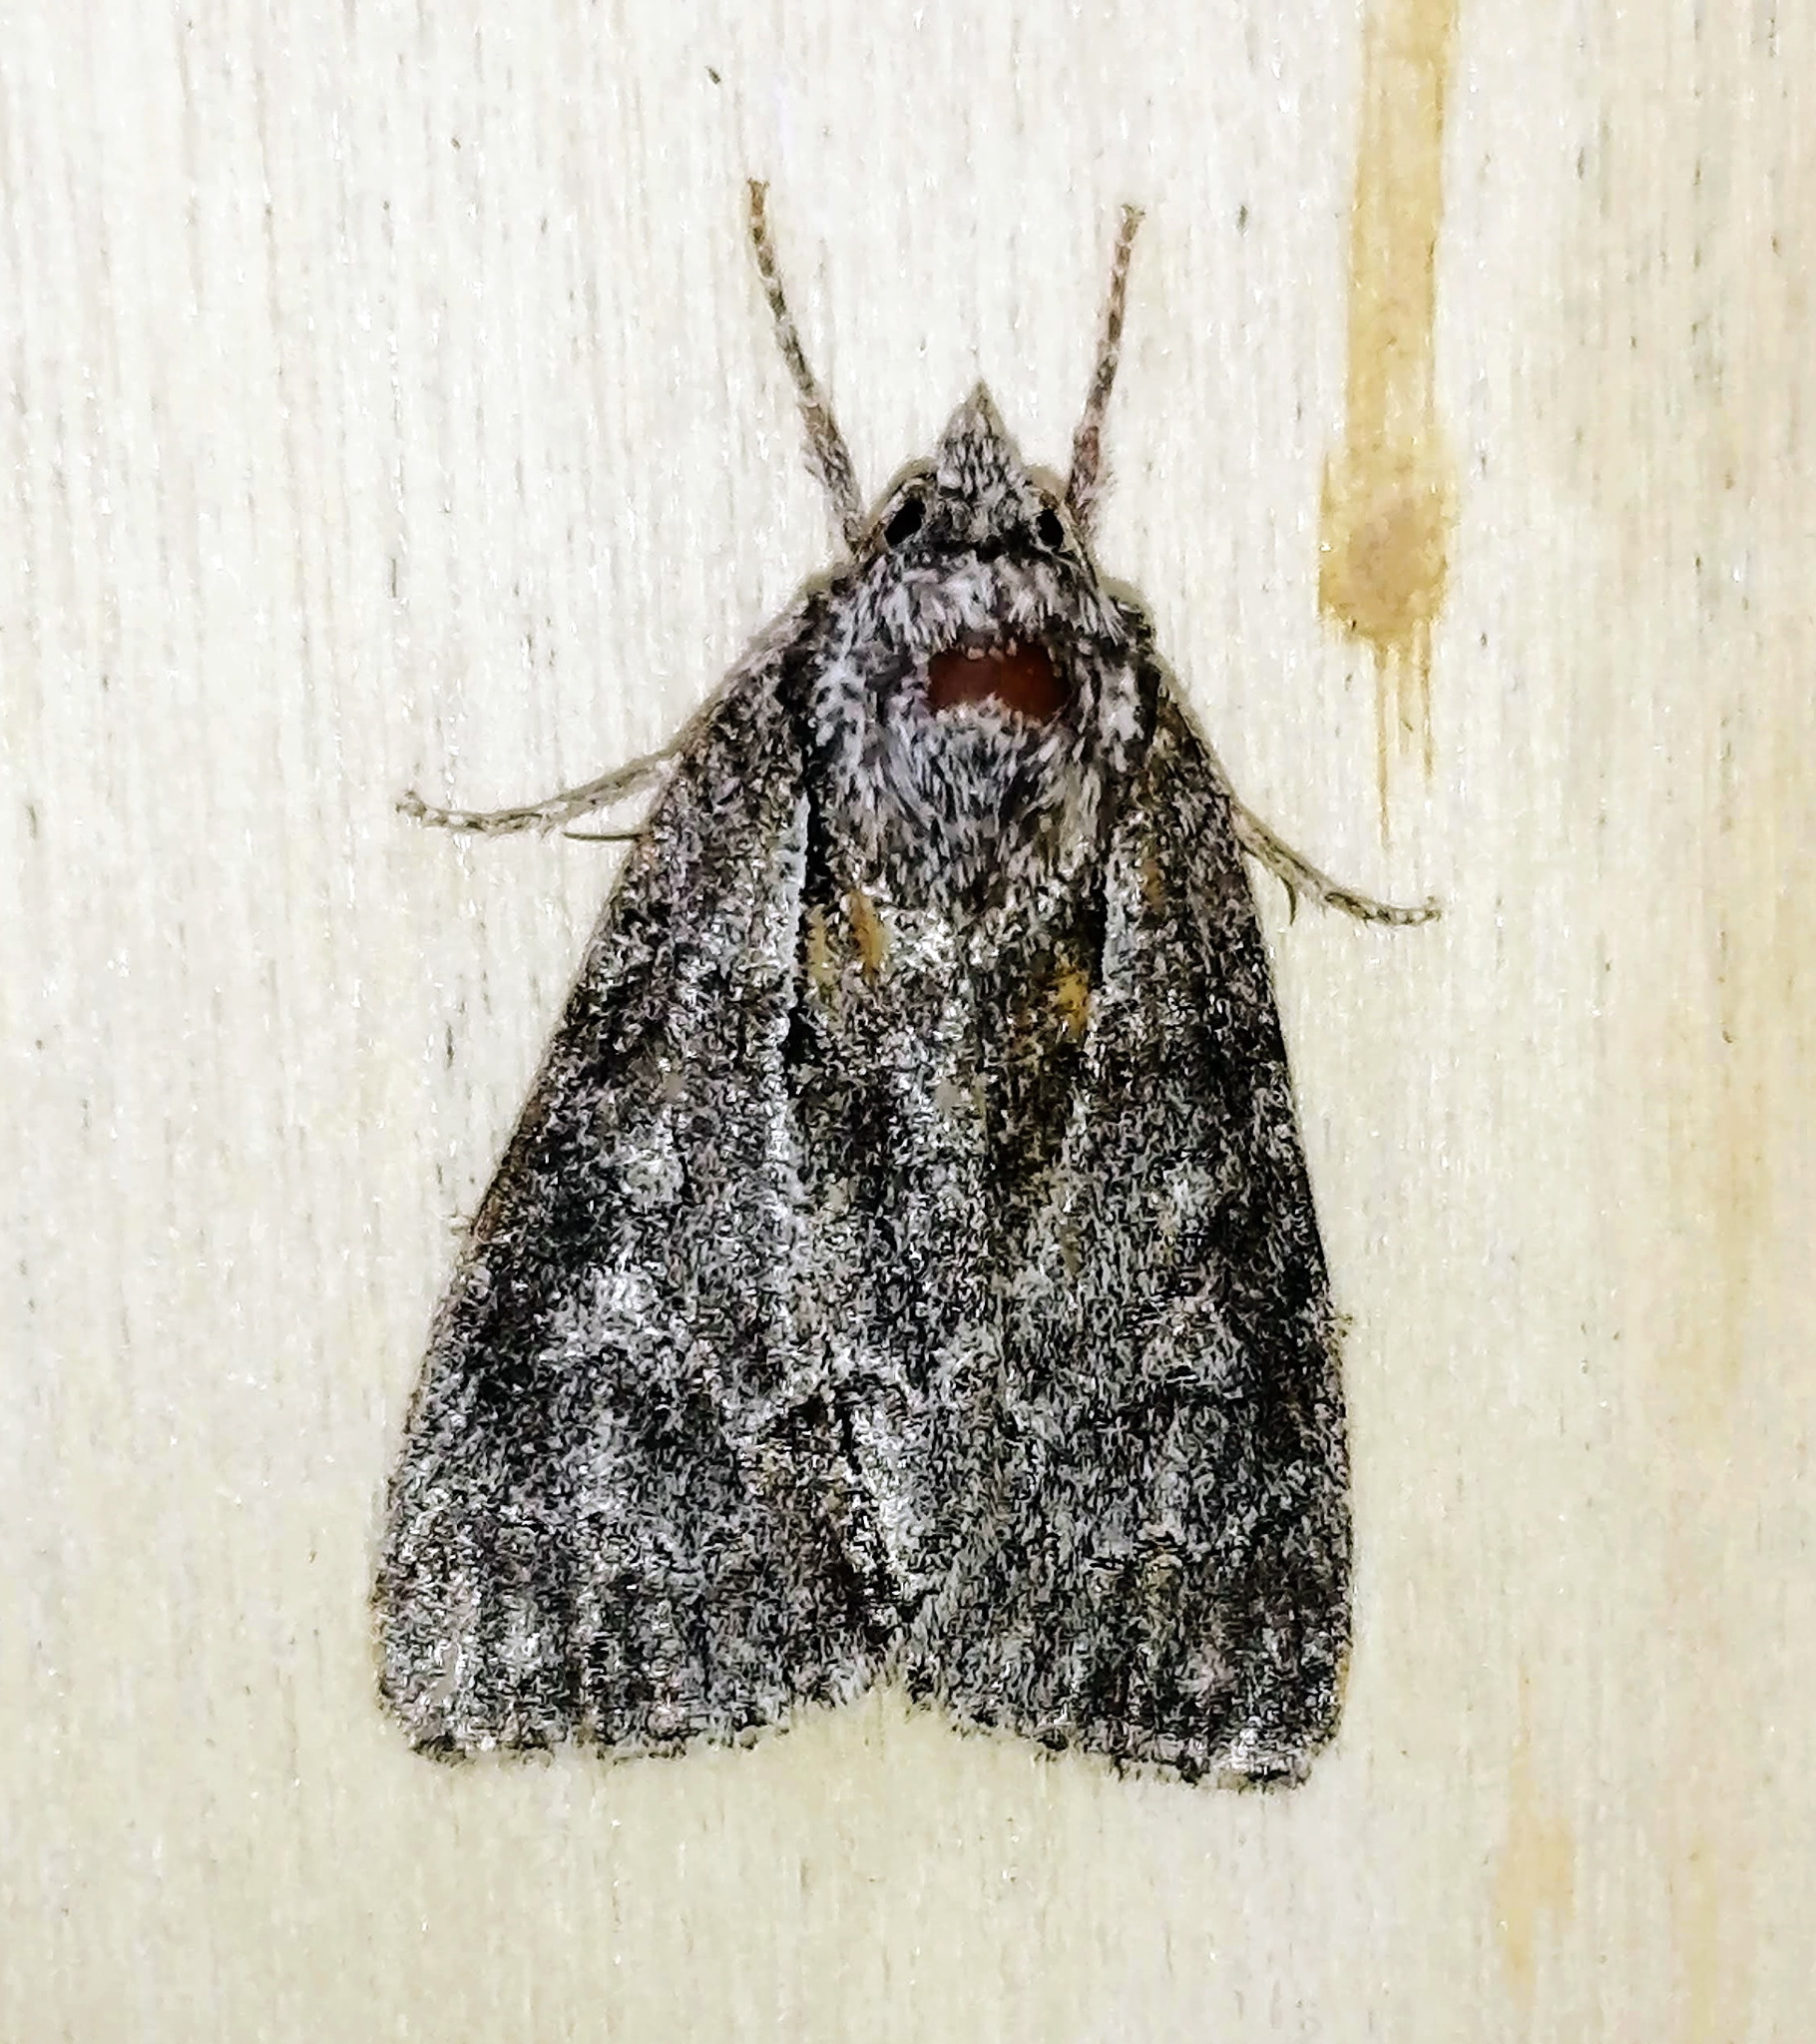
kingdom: Animalia
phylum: Arthropoda
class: Insecta
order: Lepidoptera
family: Noctuidae
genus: Acronicta
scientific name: Acronicta grisea
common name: Gray dagger
